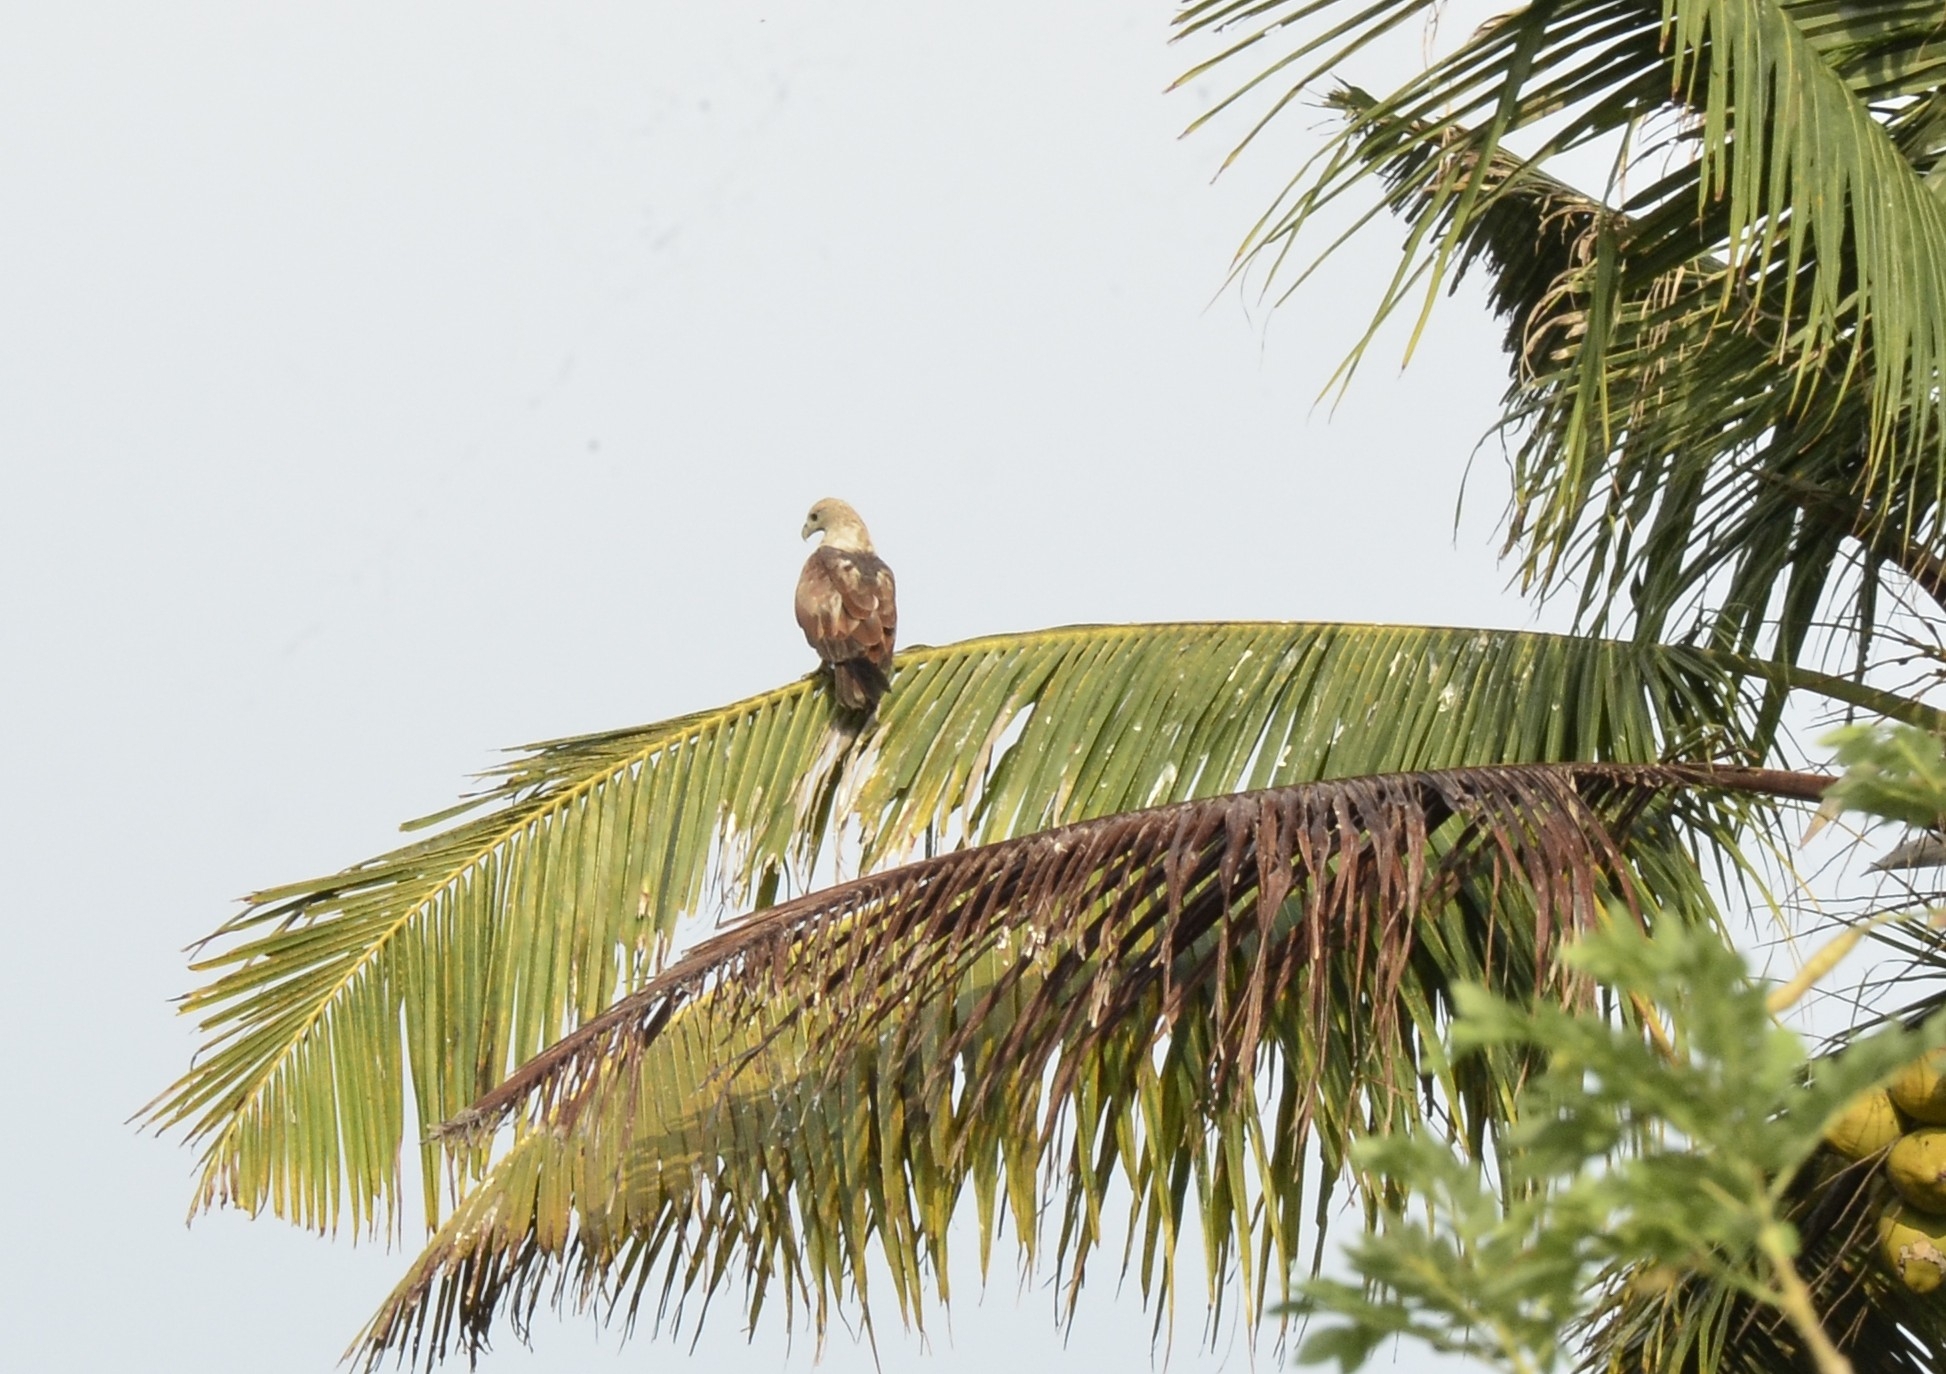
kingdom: Animalia
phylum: Chordata
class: Aves
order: Accipitriformes
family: Accipitridae
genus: Haliastur
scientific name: Haliastur indus
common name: Brahminy kite
